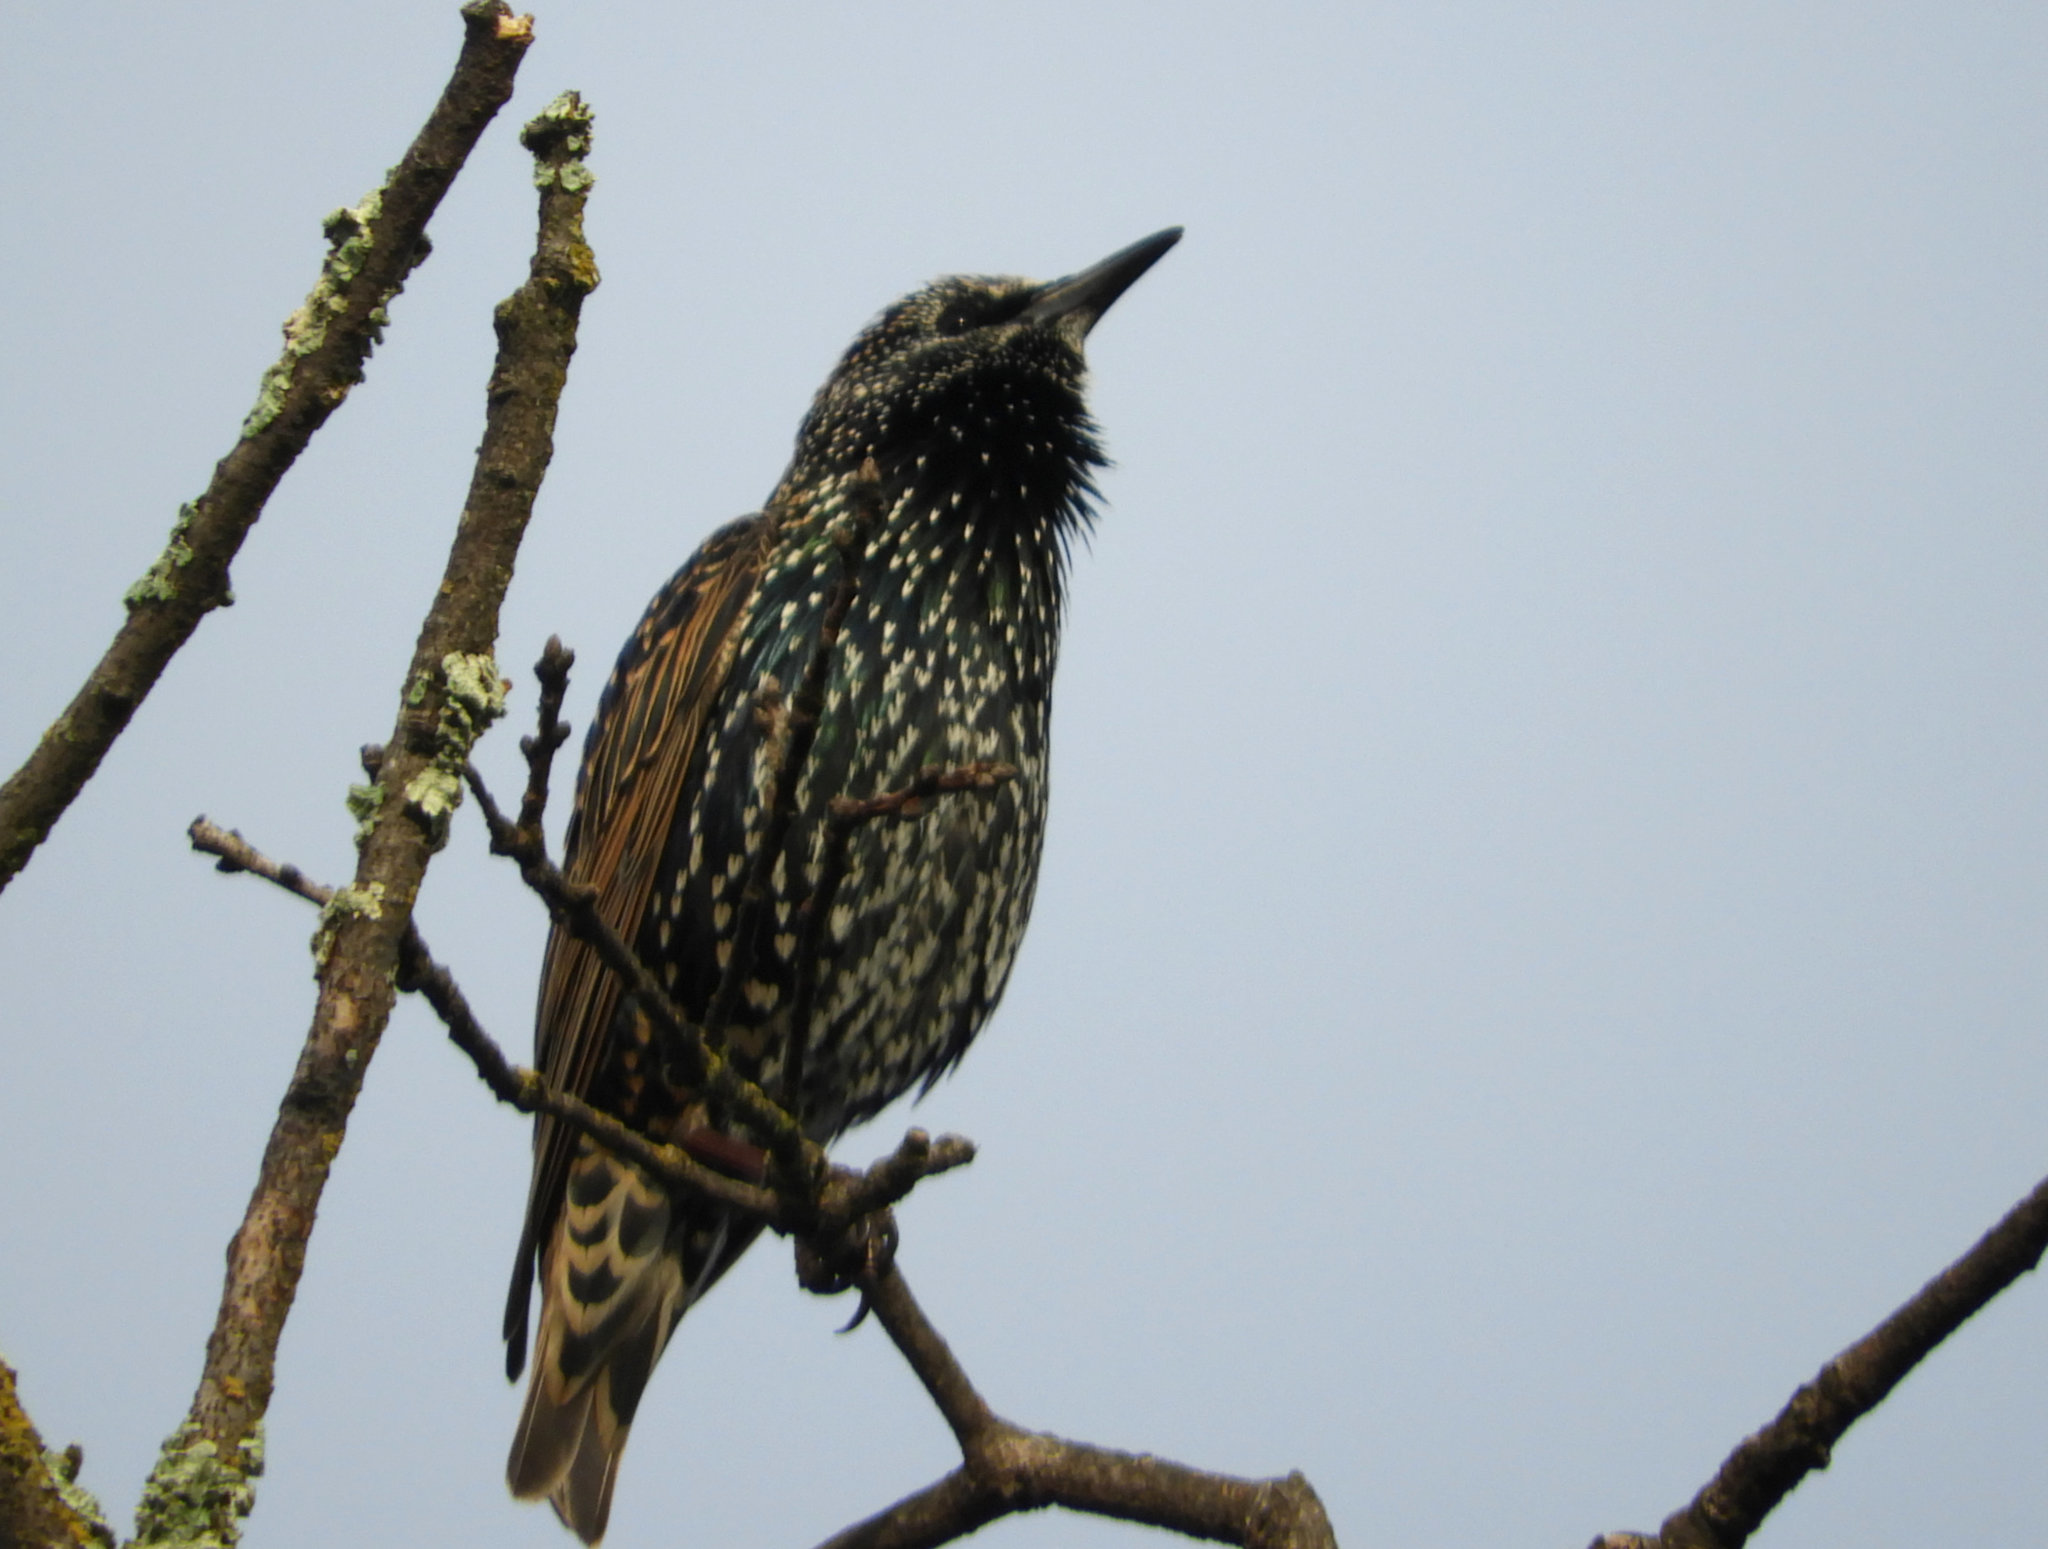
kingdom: Animalia
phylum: Chordata
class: Aves
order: Passeriformes
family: Sturnidae
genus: Sturnus
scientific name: Sturnus vulgaris
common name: Common starling
